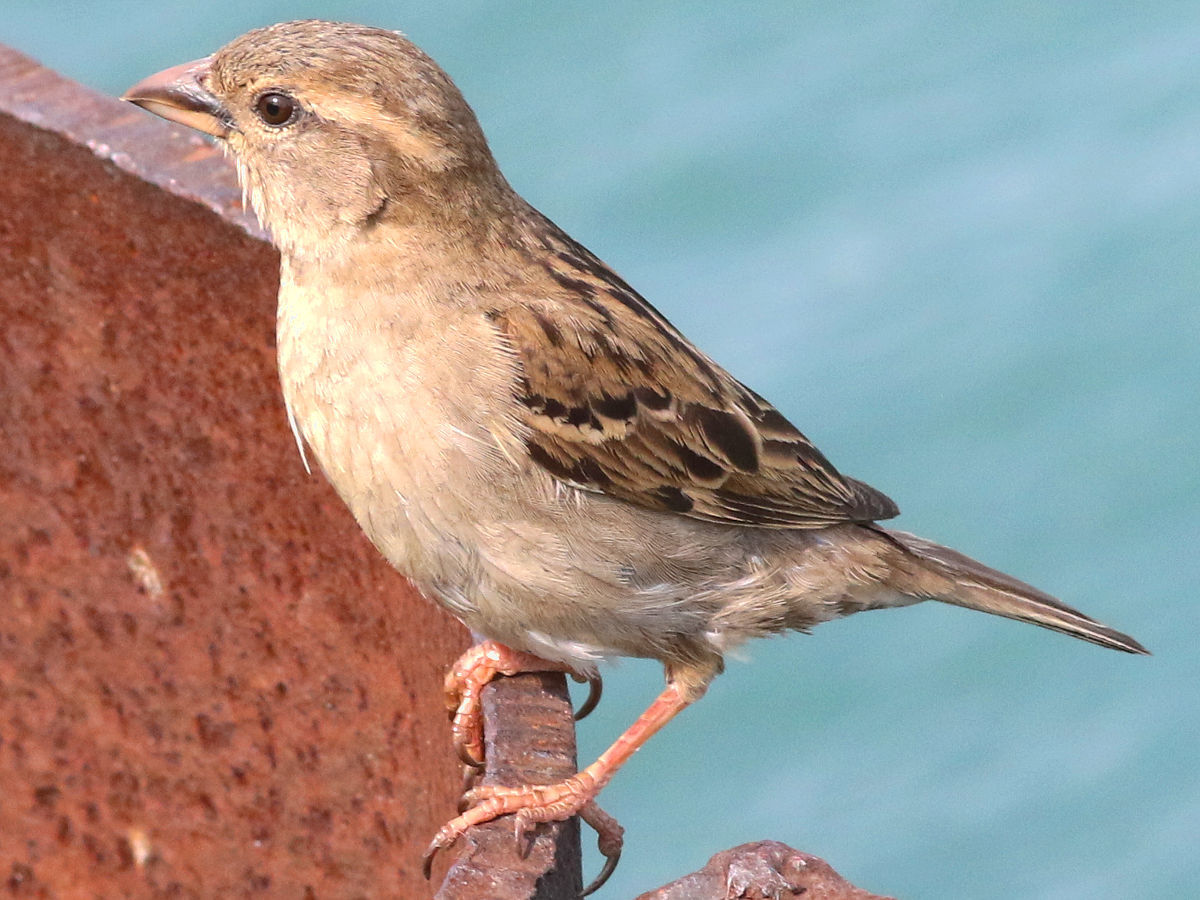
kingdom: Animalia
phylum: Chordata
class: Aves
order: Passeriformes
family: Passeridae
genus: Passer
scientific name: Passer domesticus
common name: House sparrow
